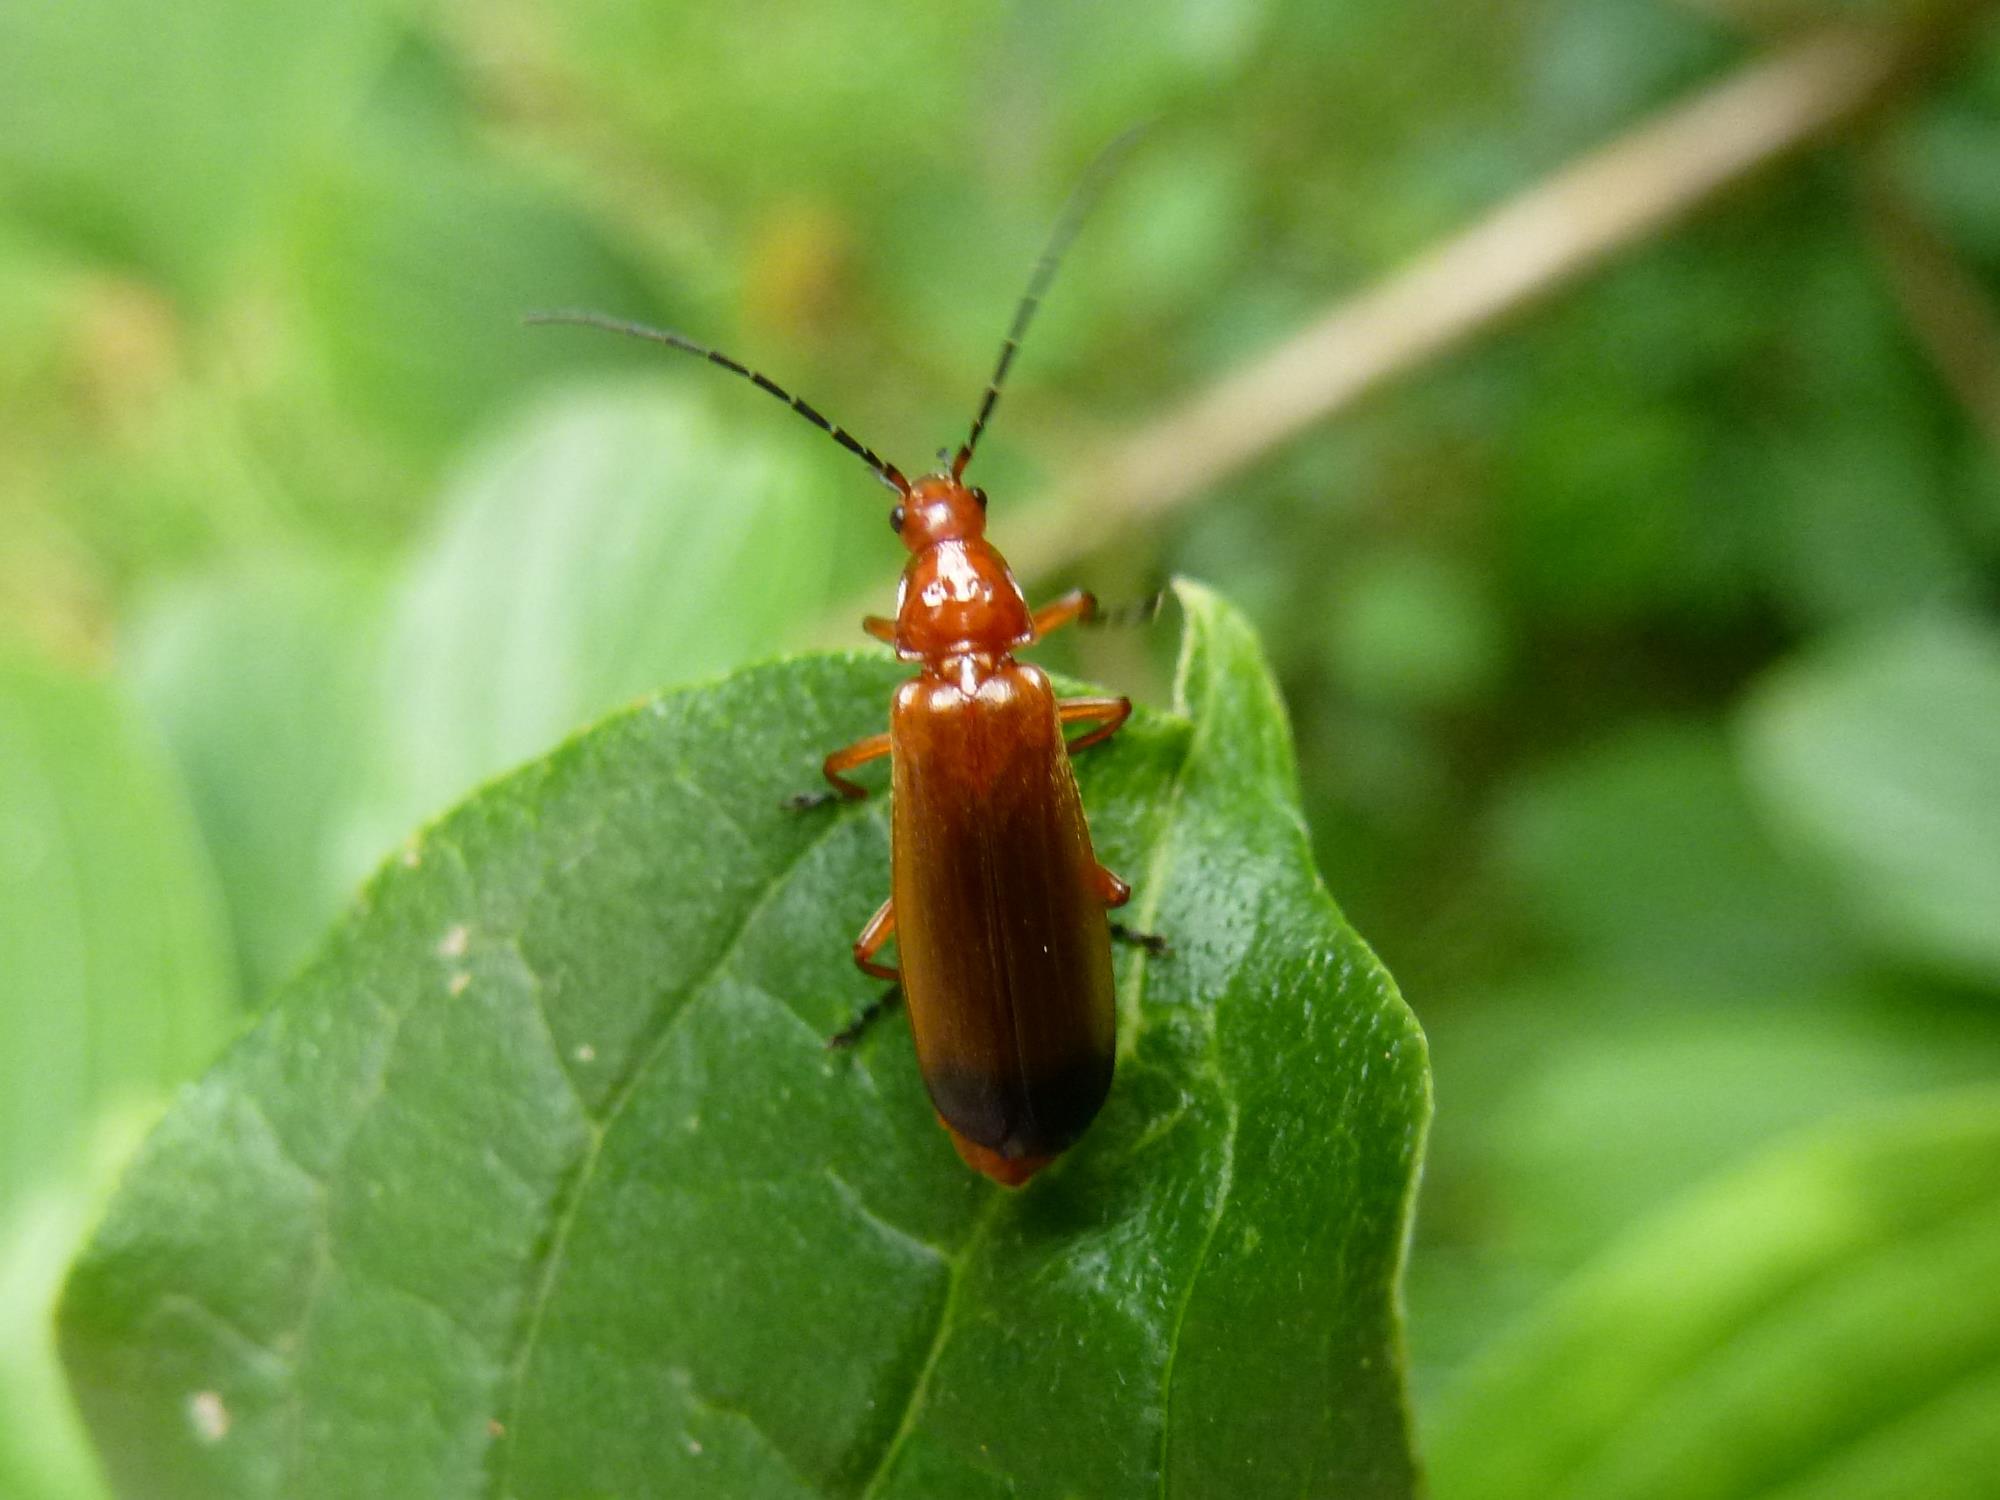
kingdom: Animalia
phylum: Arthropoda
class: Insecta
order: Coleoptera
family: Cantharidae
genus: Rhagonycha
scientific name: Rhagonycha fulva
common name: Common red soldier beetle
